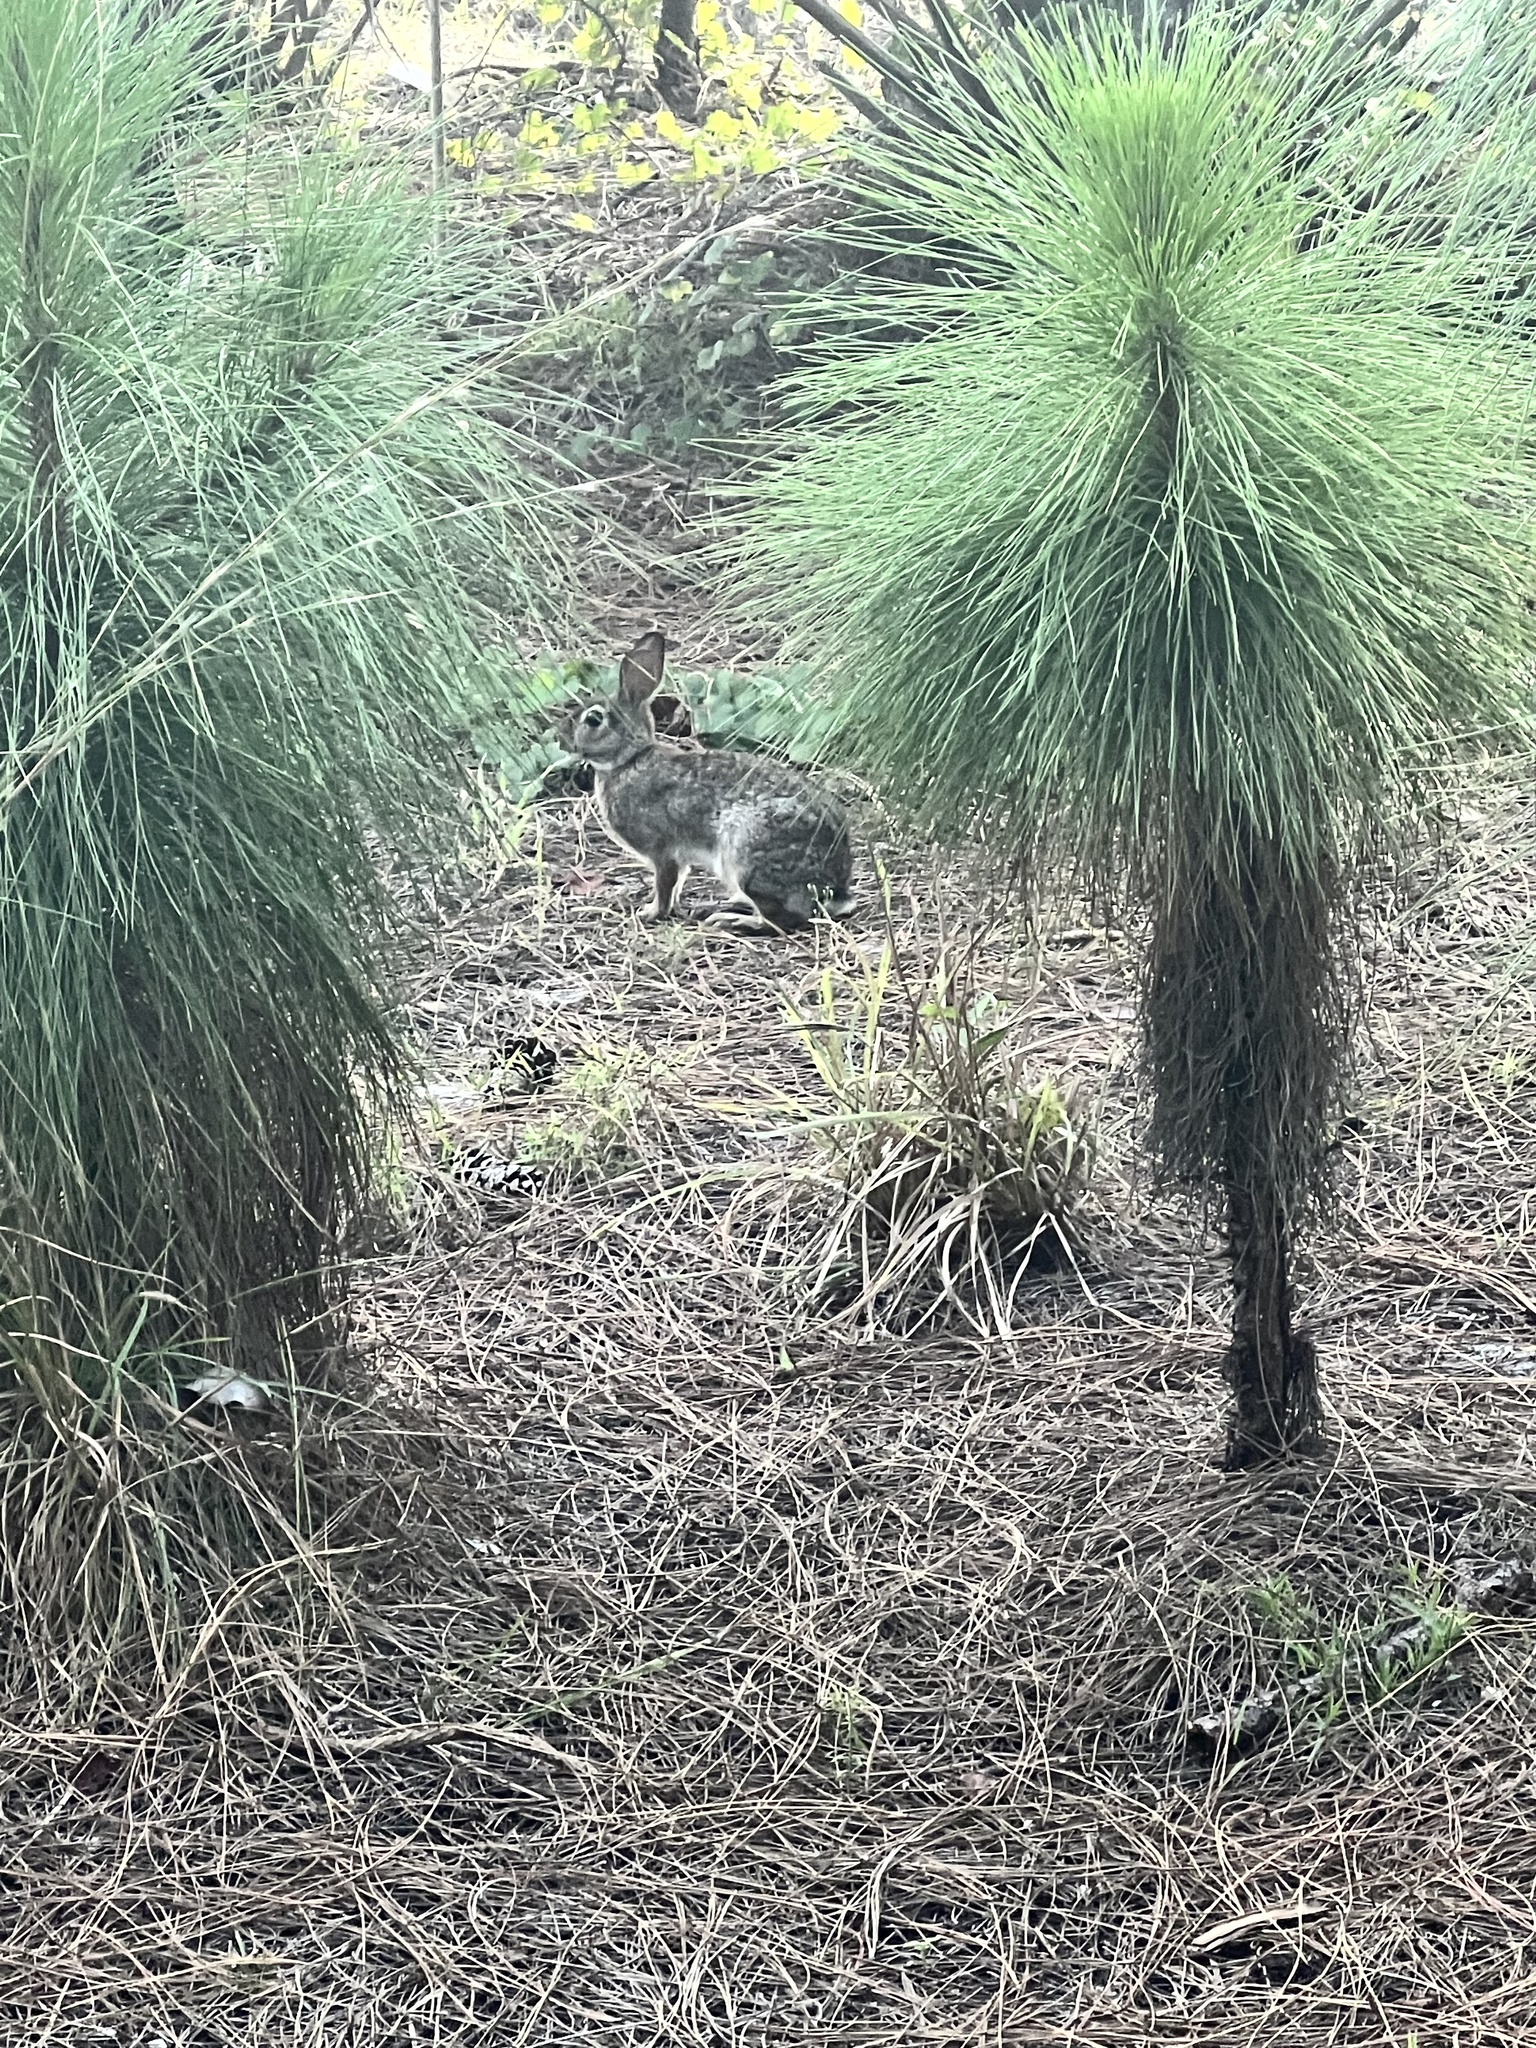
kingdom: Animalia
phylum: Chordata
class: Mammalia
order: Lagomorpha
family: Leporidae
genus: Sylvilagus
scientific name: Sylvilagus floridanus
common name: Eastern cottontail
